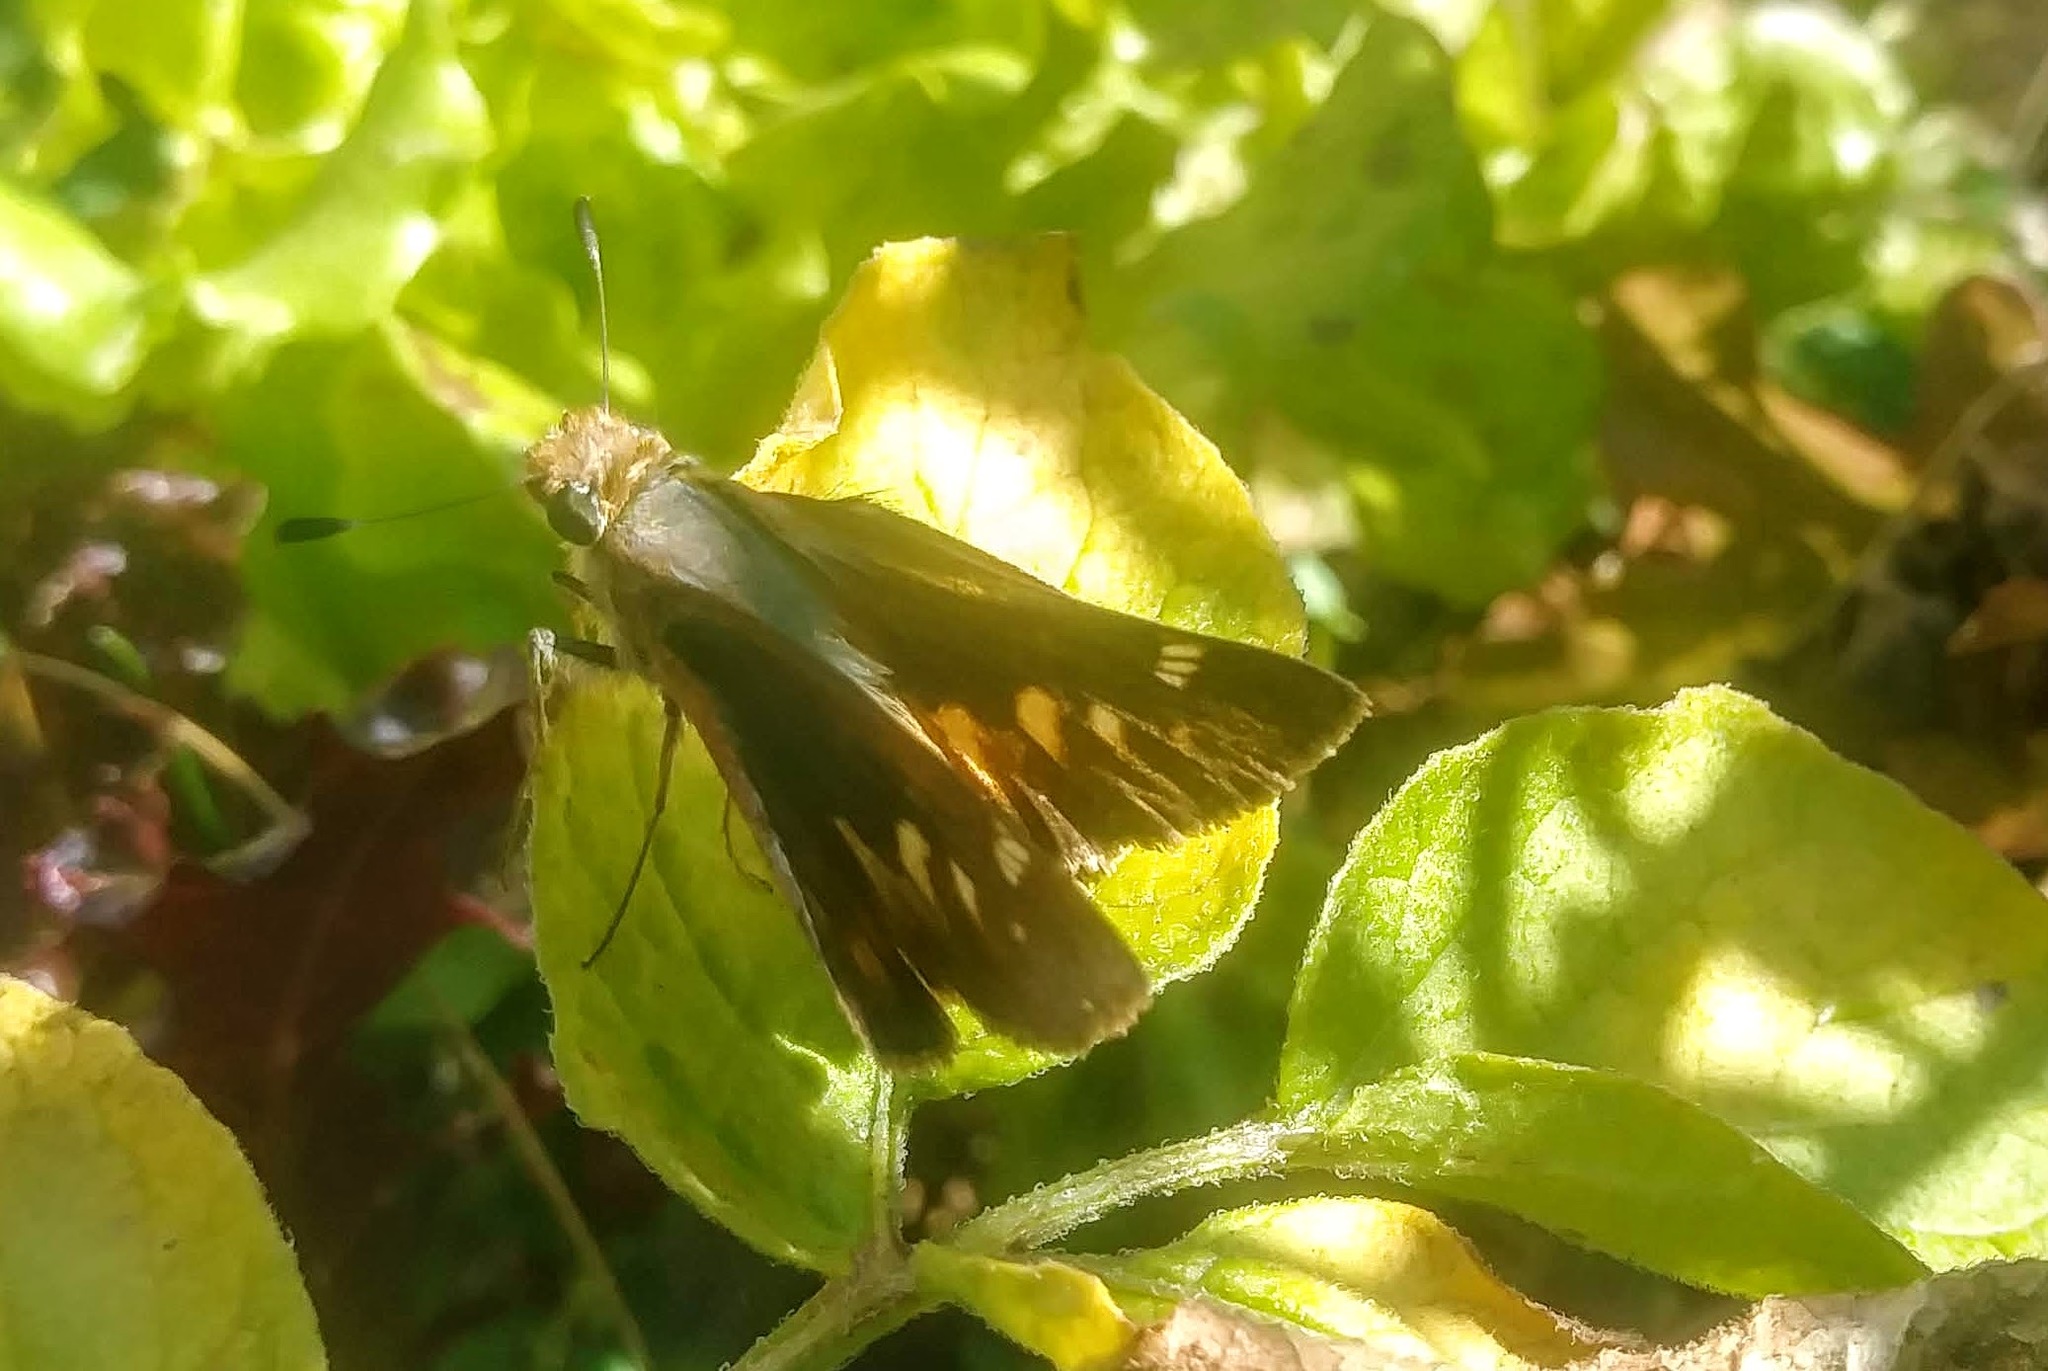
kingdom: Animalia
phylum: Arthropoda
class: Insecta
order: Lepidoptera
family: Hesperiidae
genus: Lon
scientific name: Lon melane
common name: Umber skipper
